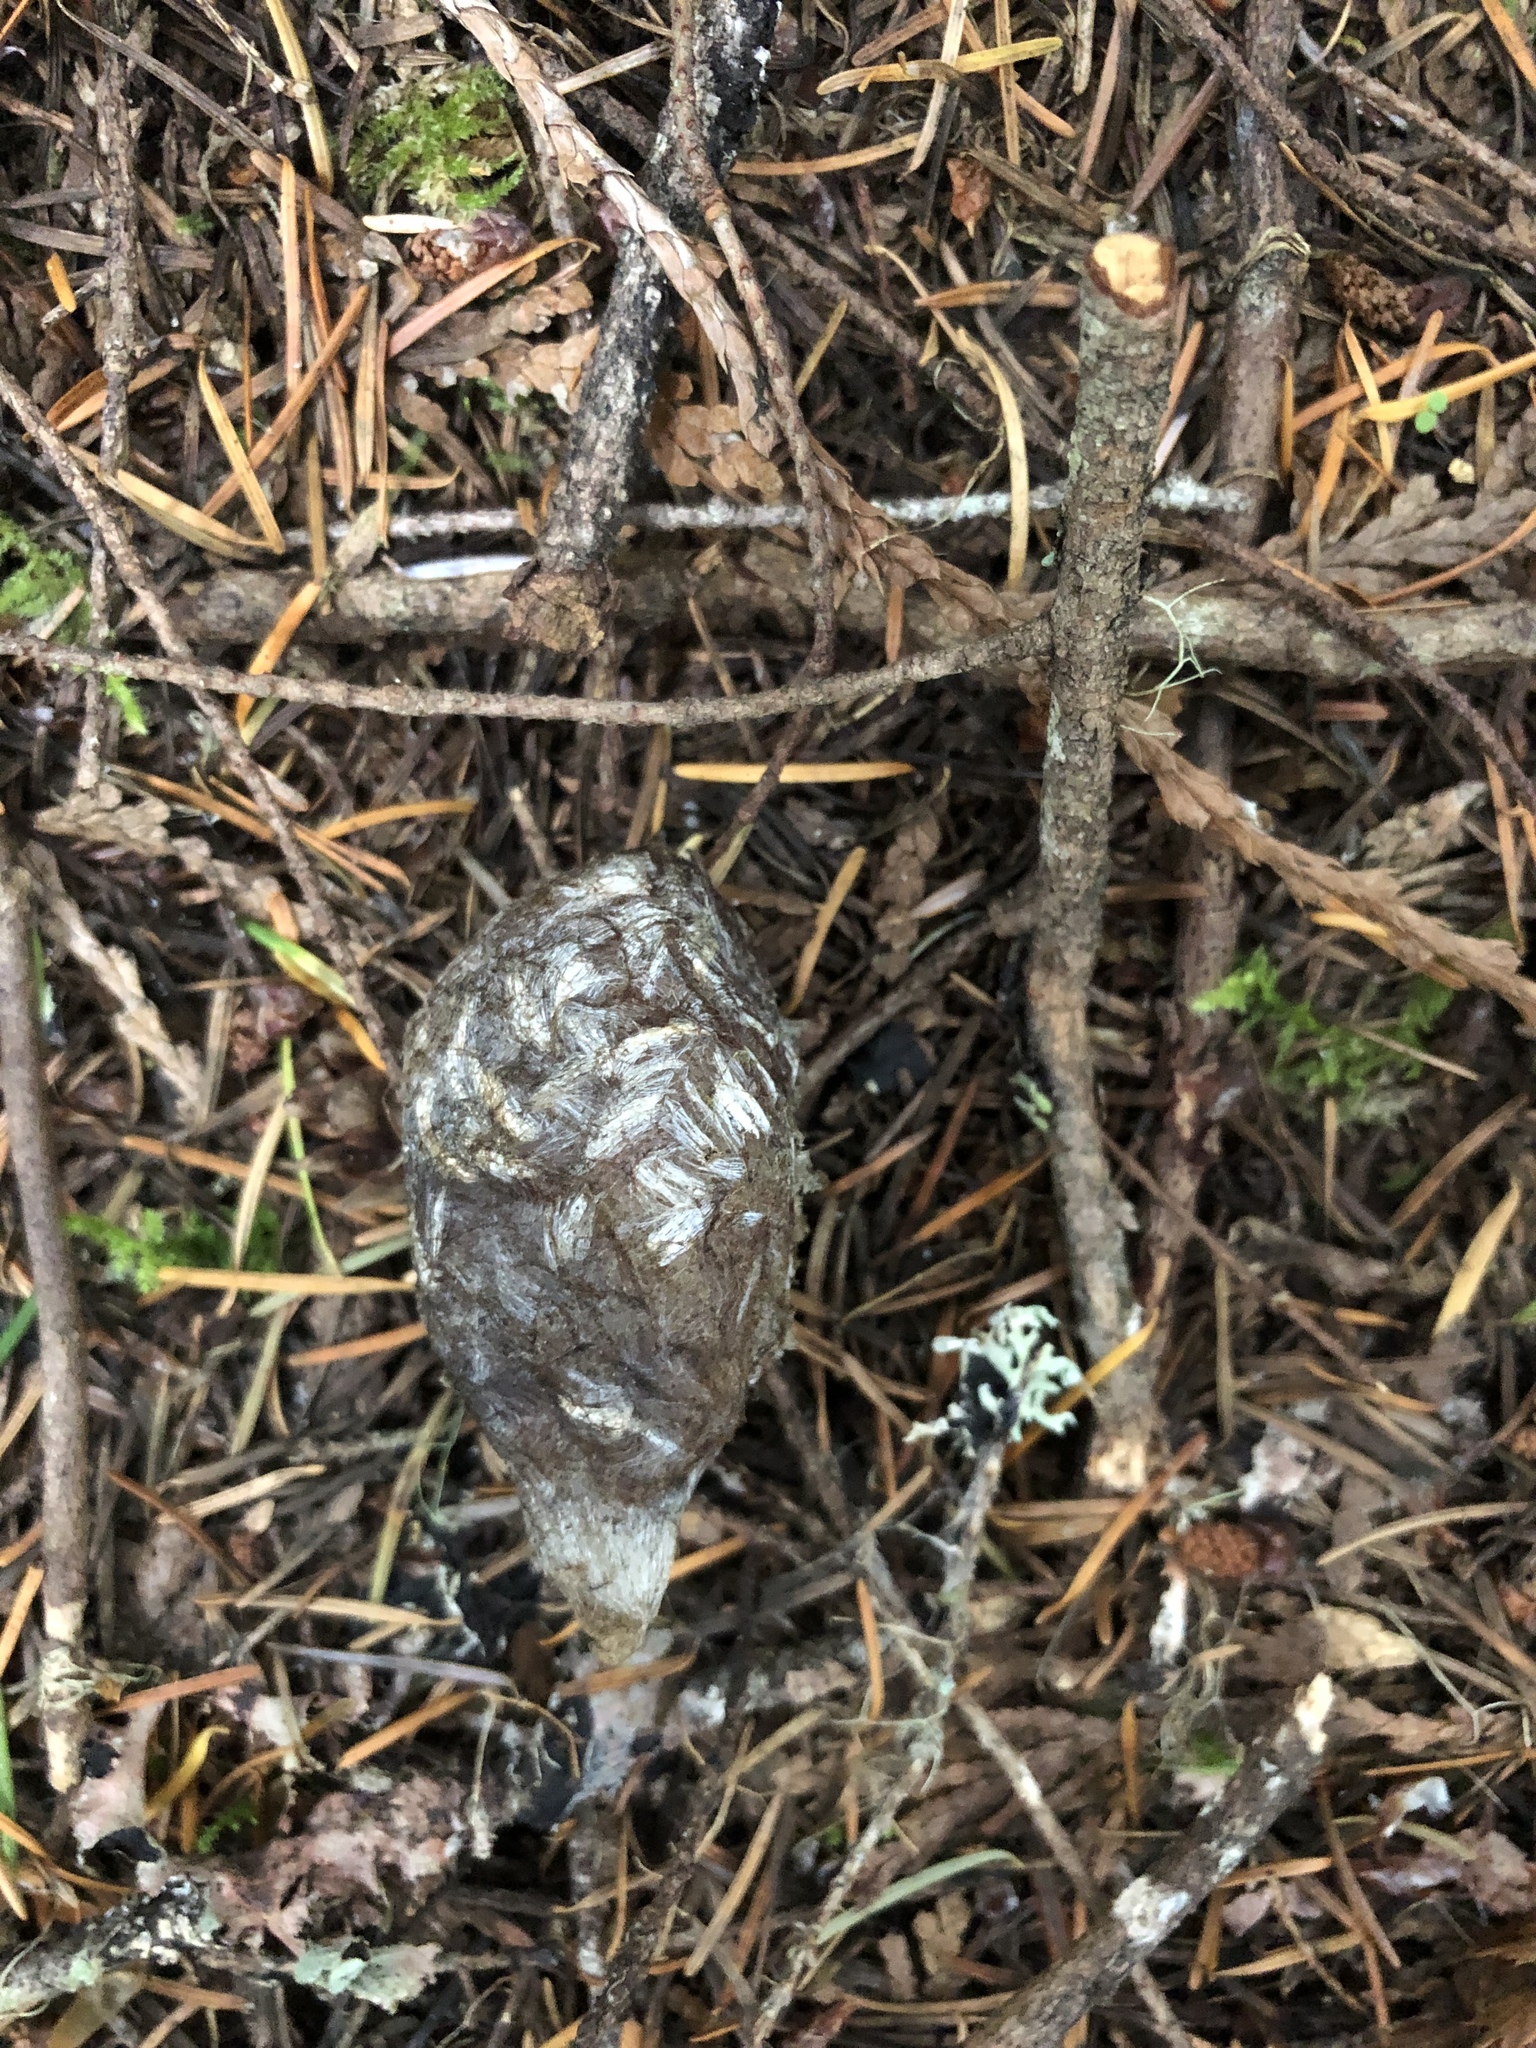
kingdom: Animalia
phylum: Arthropoda
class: Insecta
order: Lepidoptera
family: Saturniidae
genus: Hyalophora
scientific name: Hyalophora euryalus
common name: Ceanothus silkmoth
